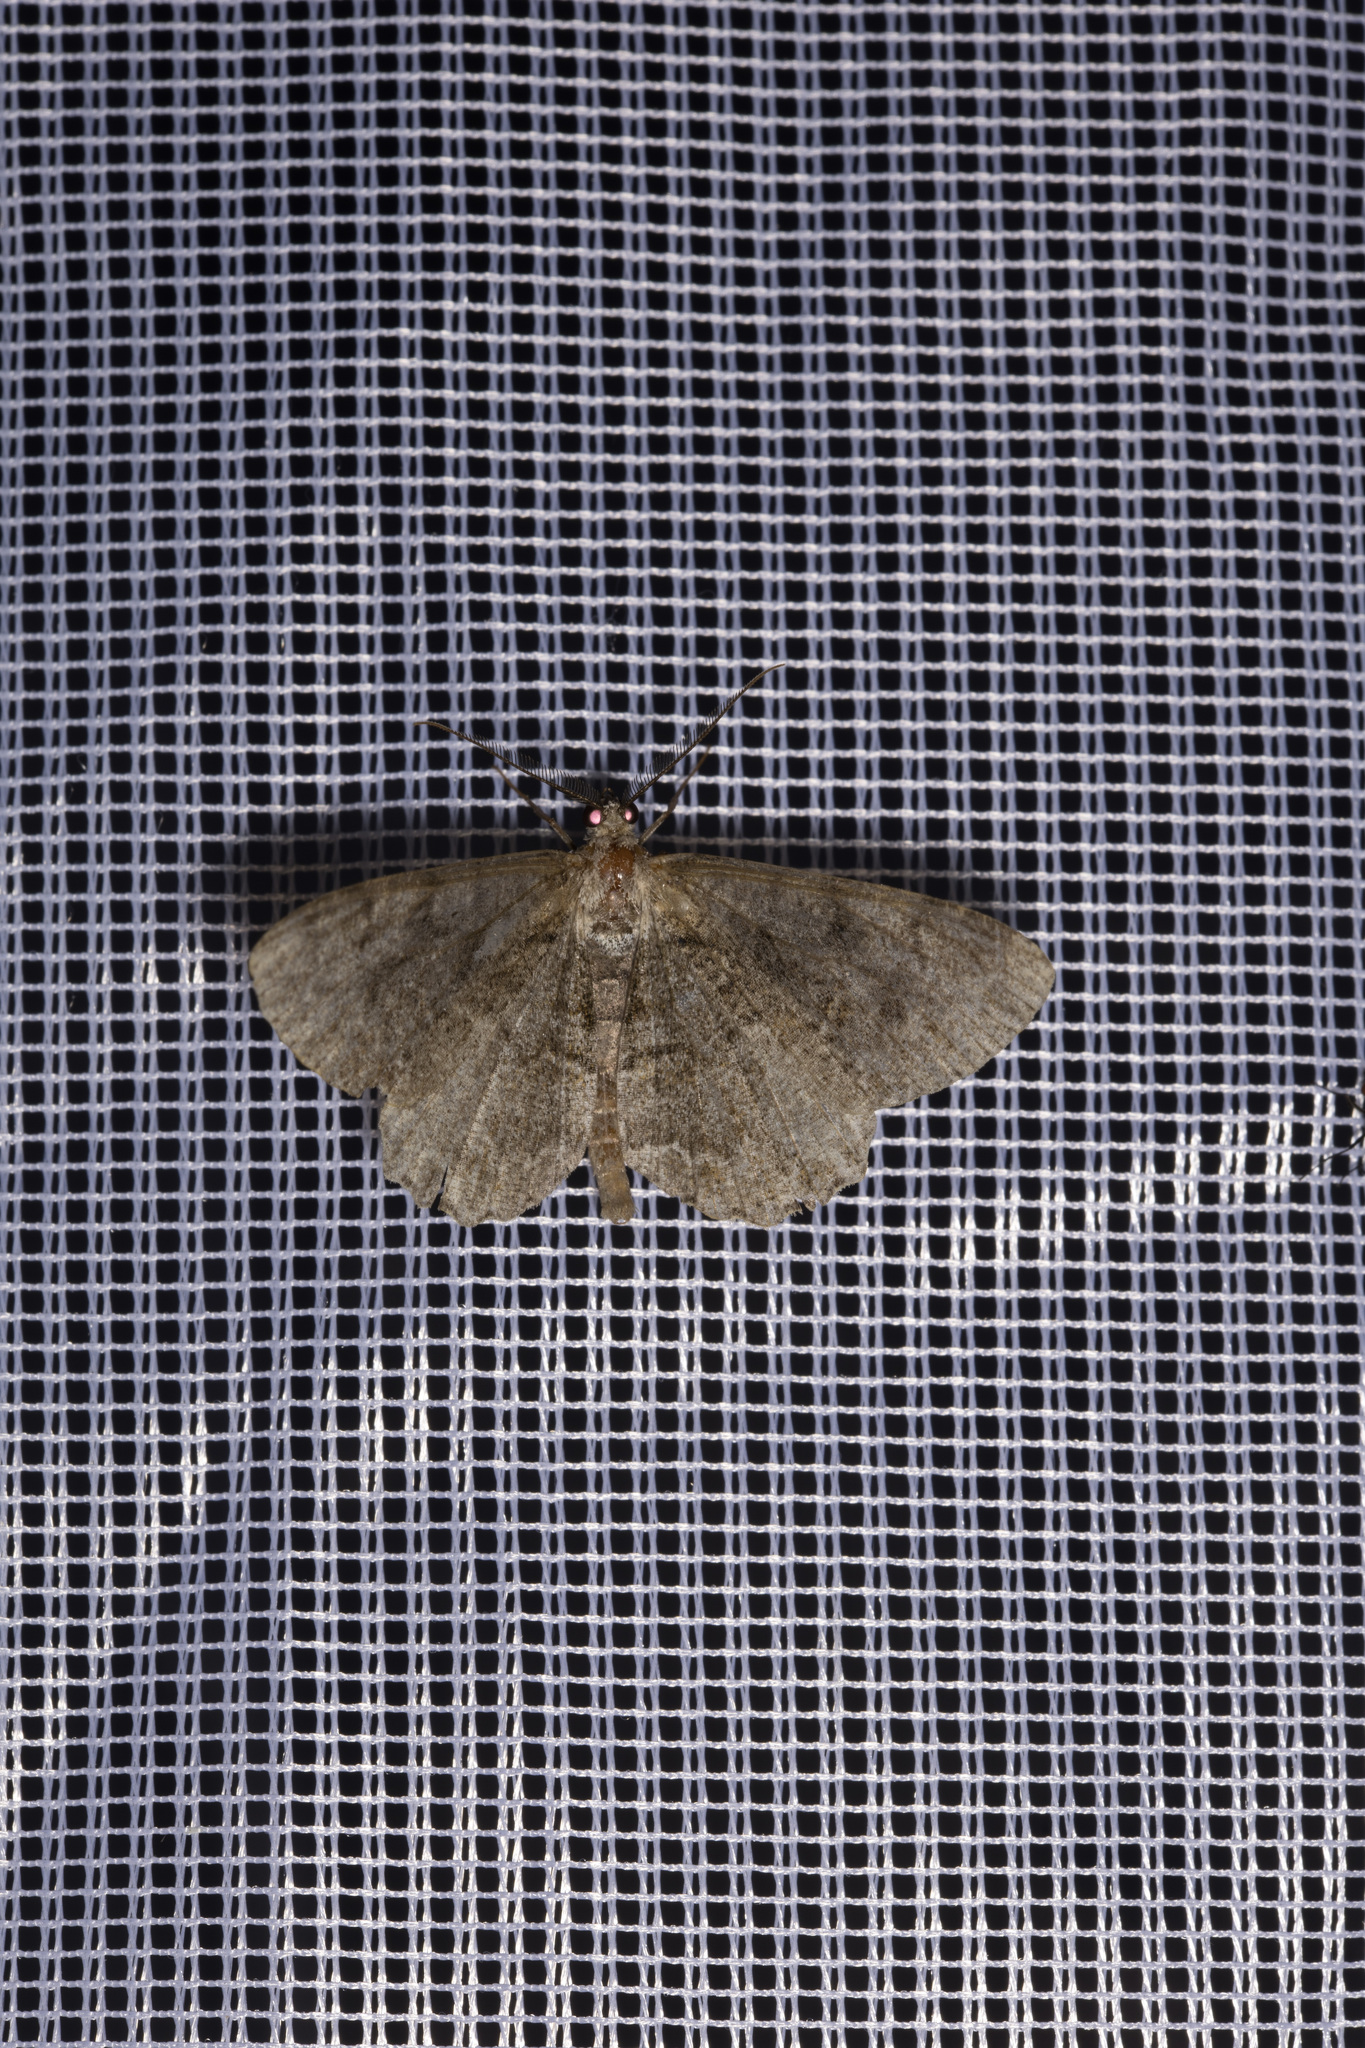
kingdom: Animalia
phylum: Arthropoda
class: Insecta
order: Lepidoptera
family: Geometridae
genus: Alcis
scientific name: Alcis repandata
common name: Mottled beauty
